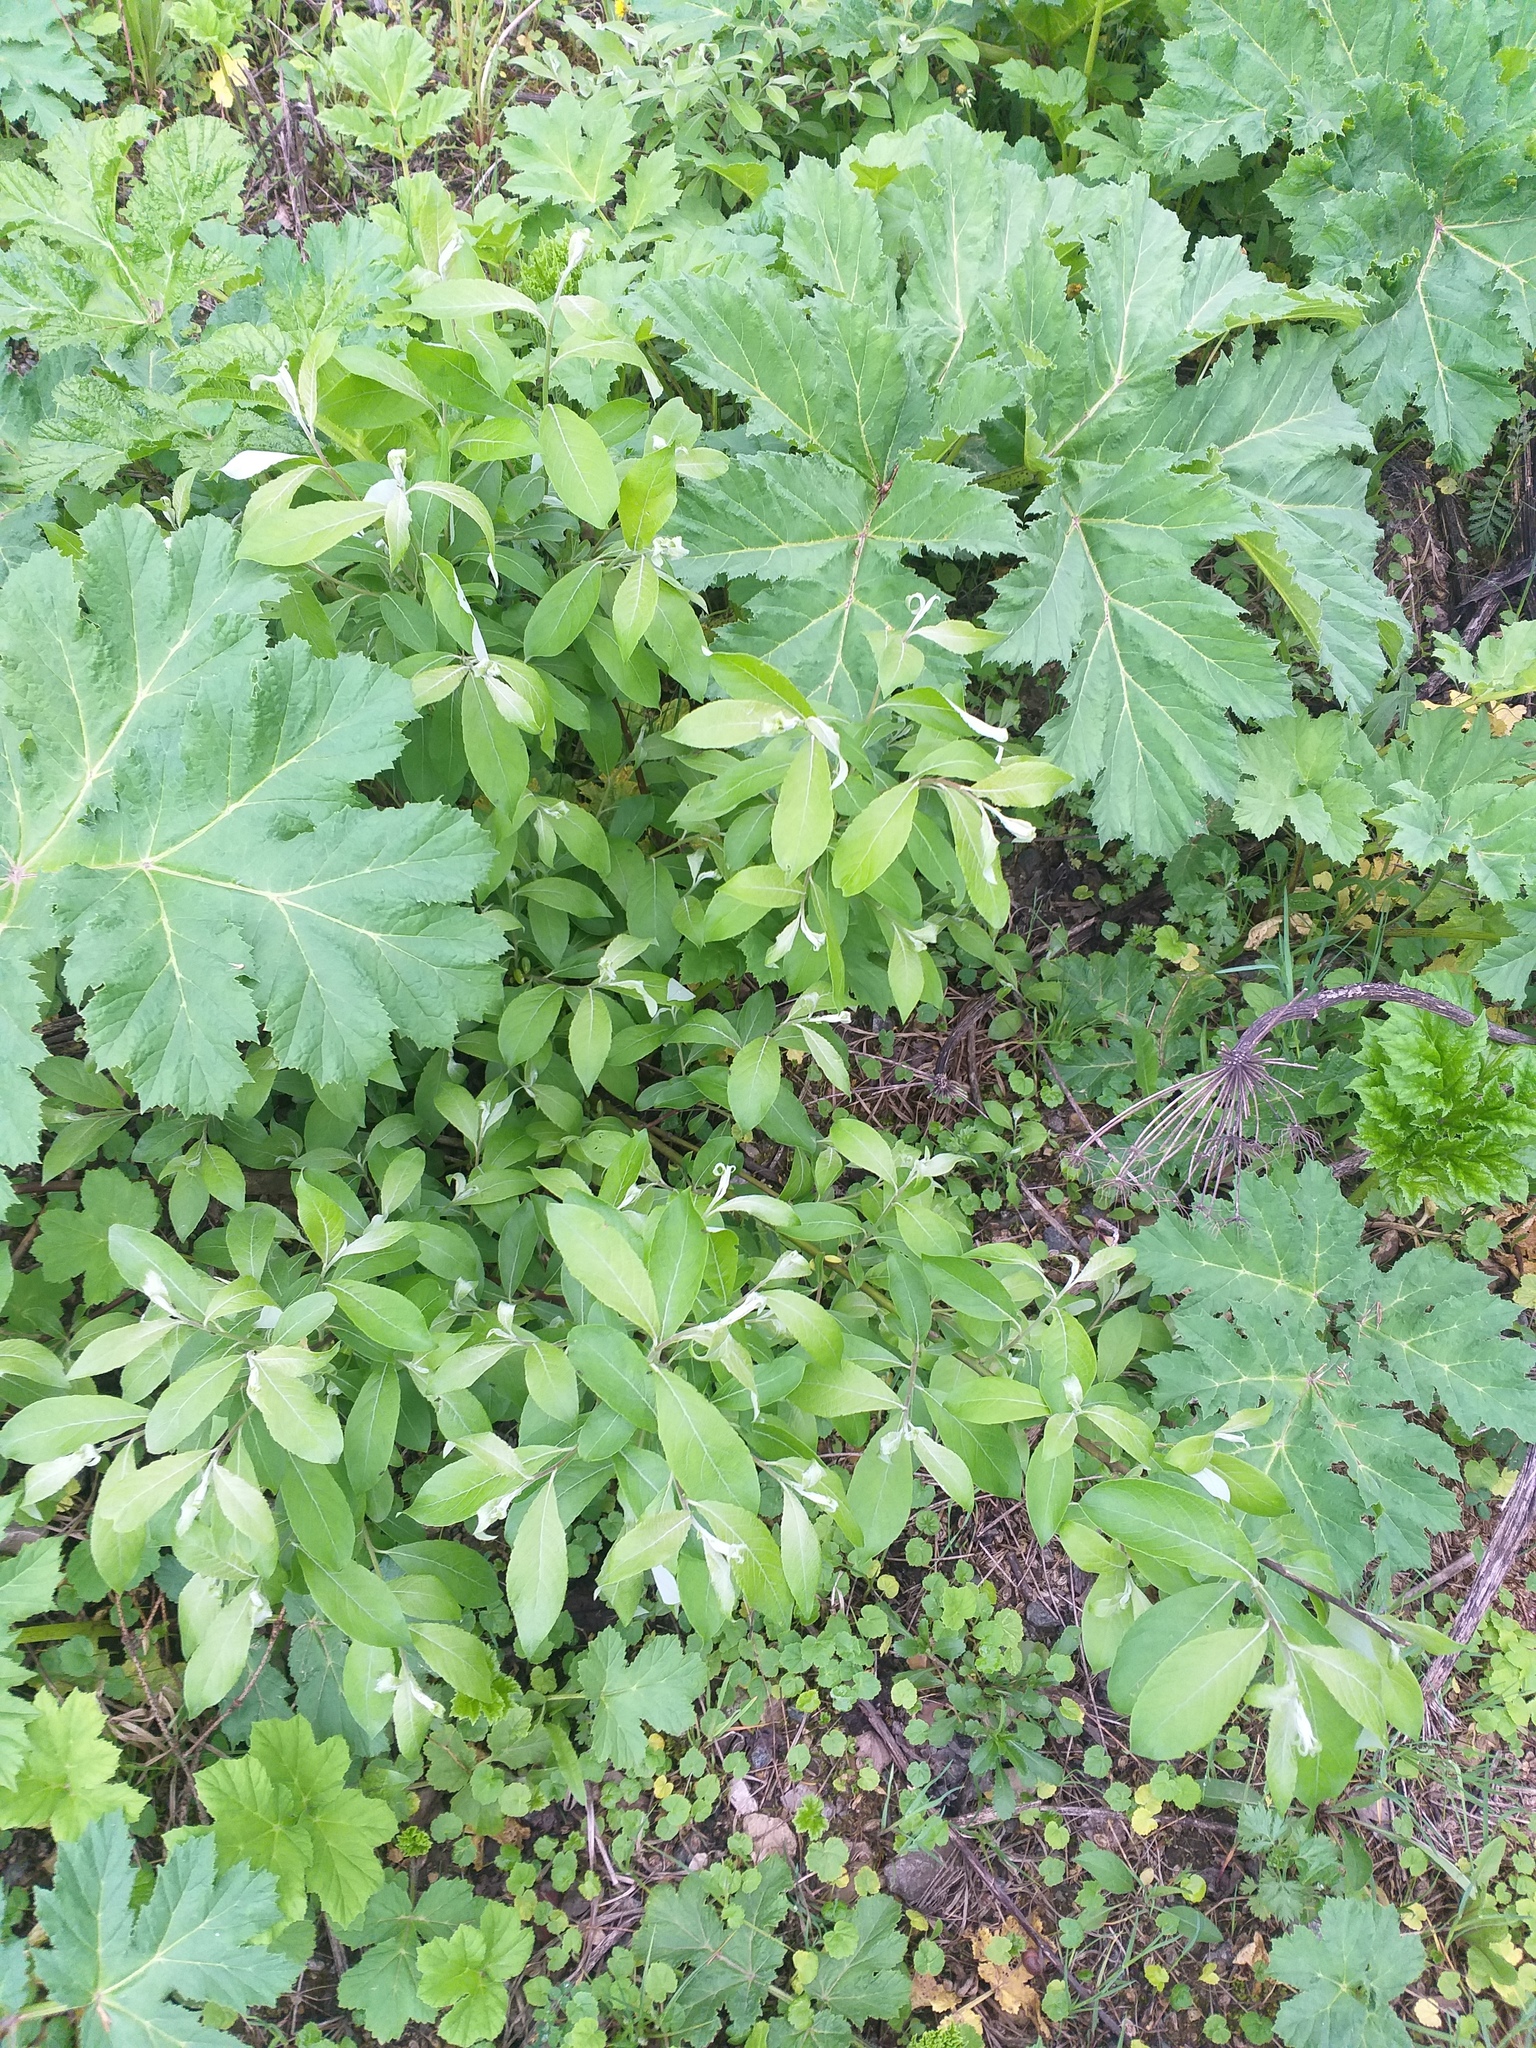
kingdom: Plantae
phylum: Tracheophyta
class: Magnoliopsida
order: Malpighiales
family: Salicaceae
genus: Salix
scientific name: Salix caprea
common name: Goat willow
